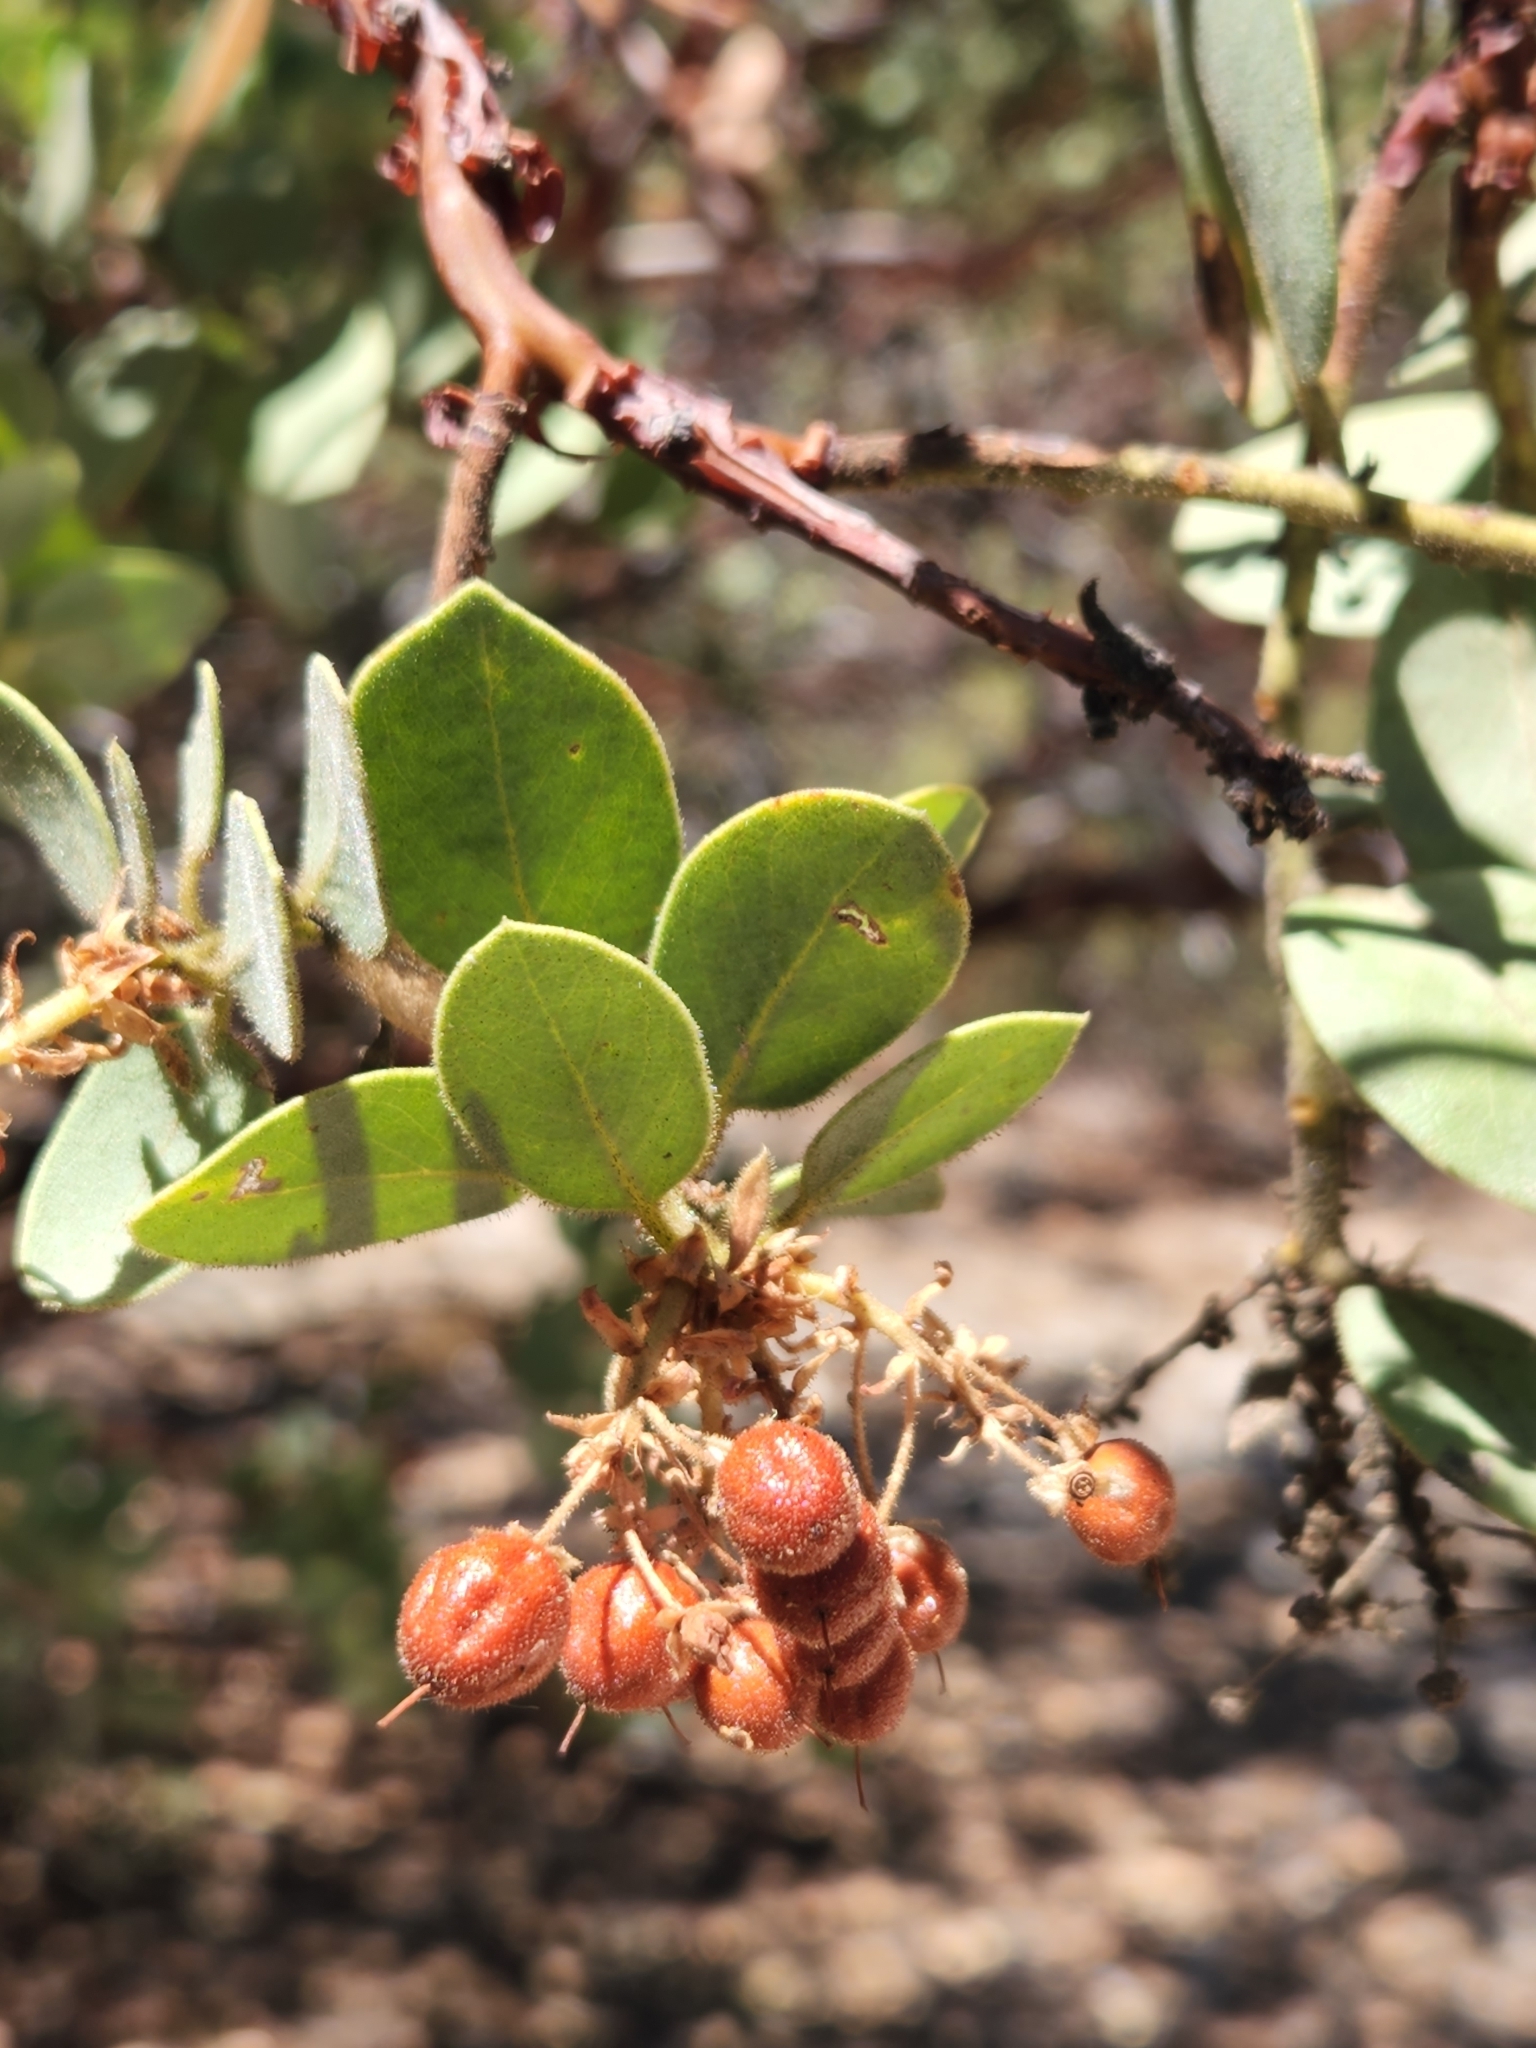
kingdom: Plantae
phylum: Tracheophyta
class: Magnoliopsida
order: Ericales
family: Ericaceae
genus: Arctostaphylos
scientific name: Arctostaphylos pringlei
